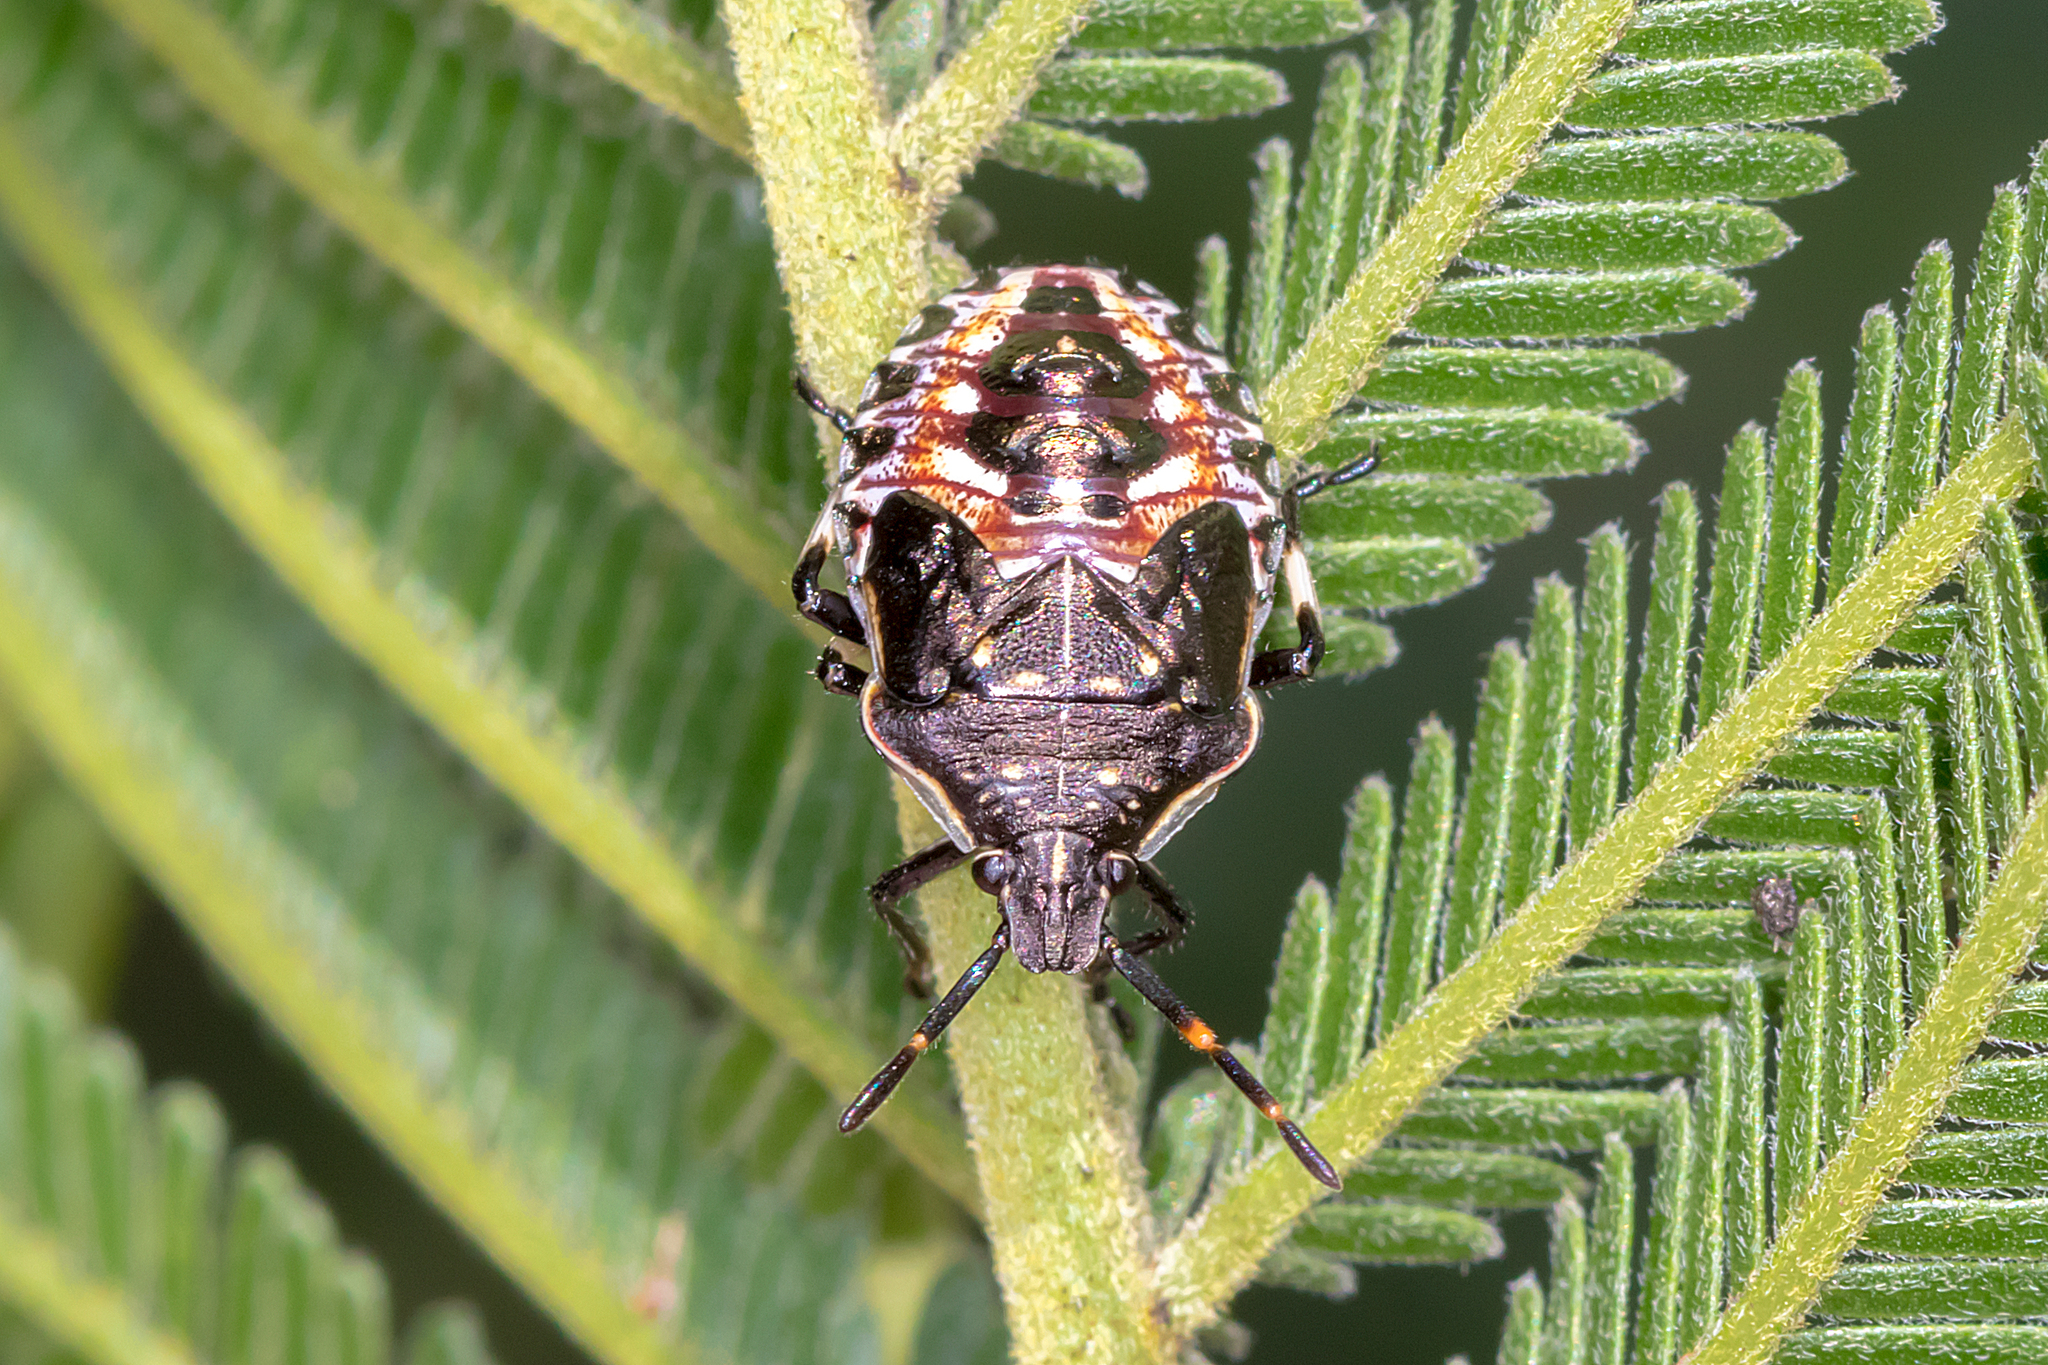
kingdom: Animalia
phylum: Arthropoda
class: Insecta
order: Hemiptera
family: Pentatomidae
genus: Oechalia
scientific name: Oechalia schellenbergii
